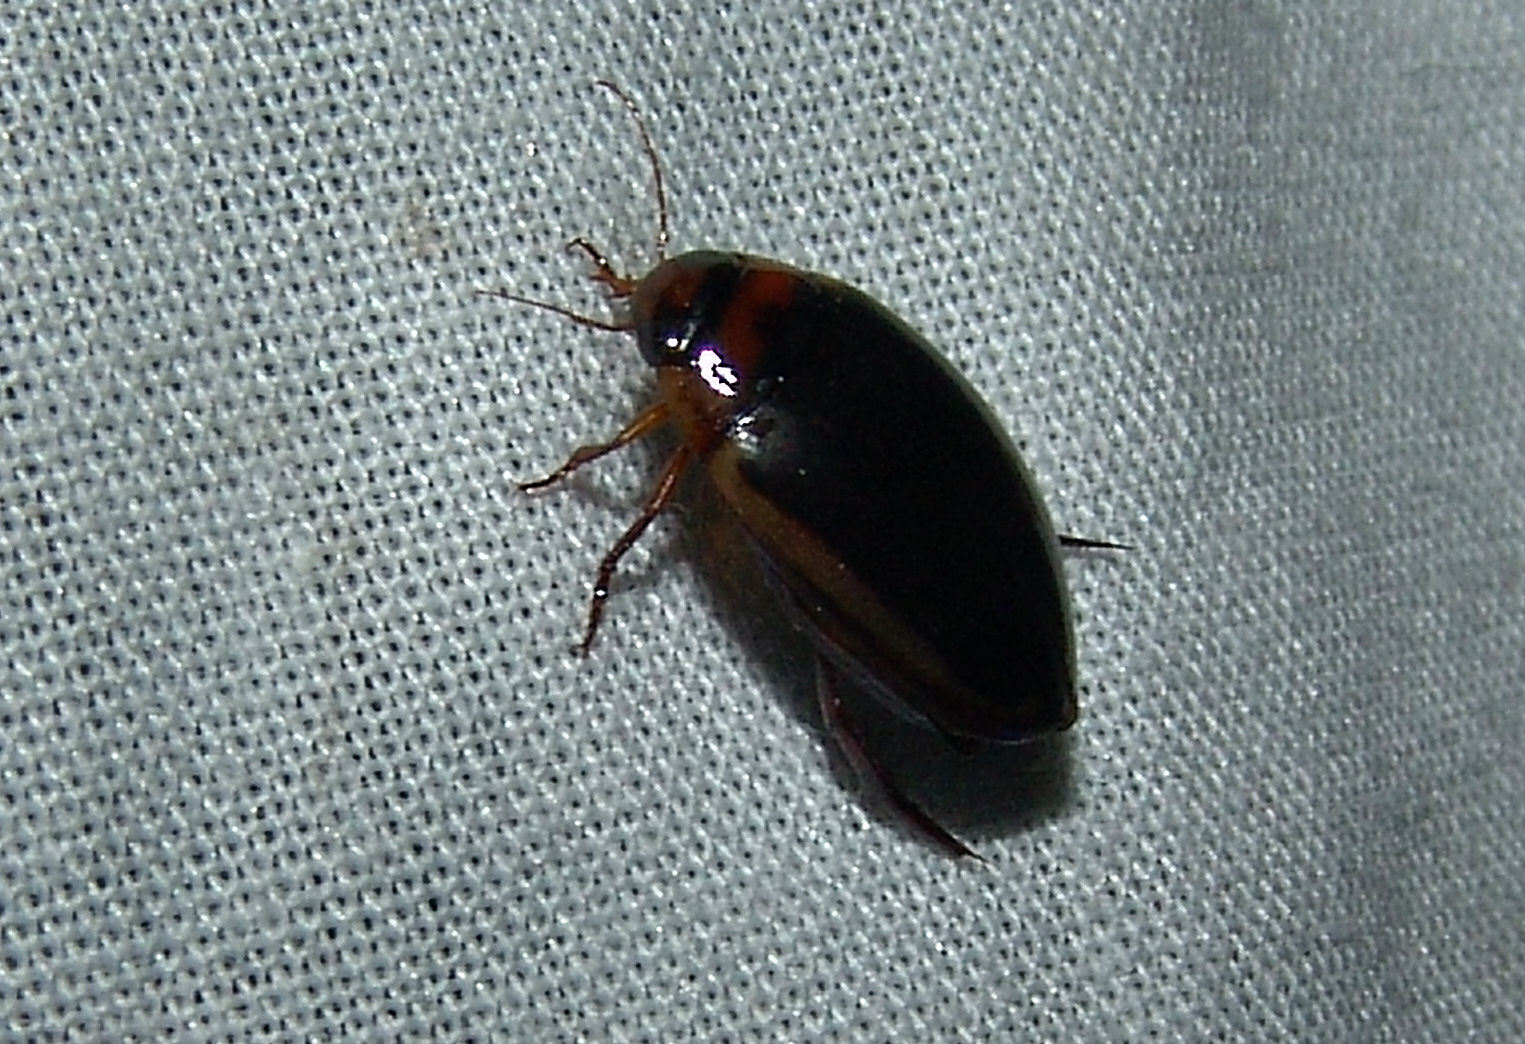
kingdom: Animalia
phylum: Arthropoda
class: Insecta
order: Coleoptera
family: Dytiscidae
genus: Hydaticus
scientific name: Hydaticus bimarginatus
